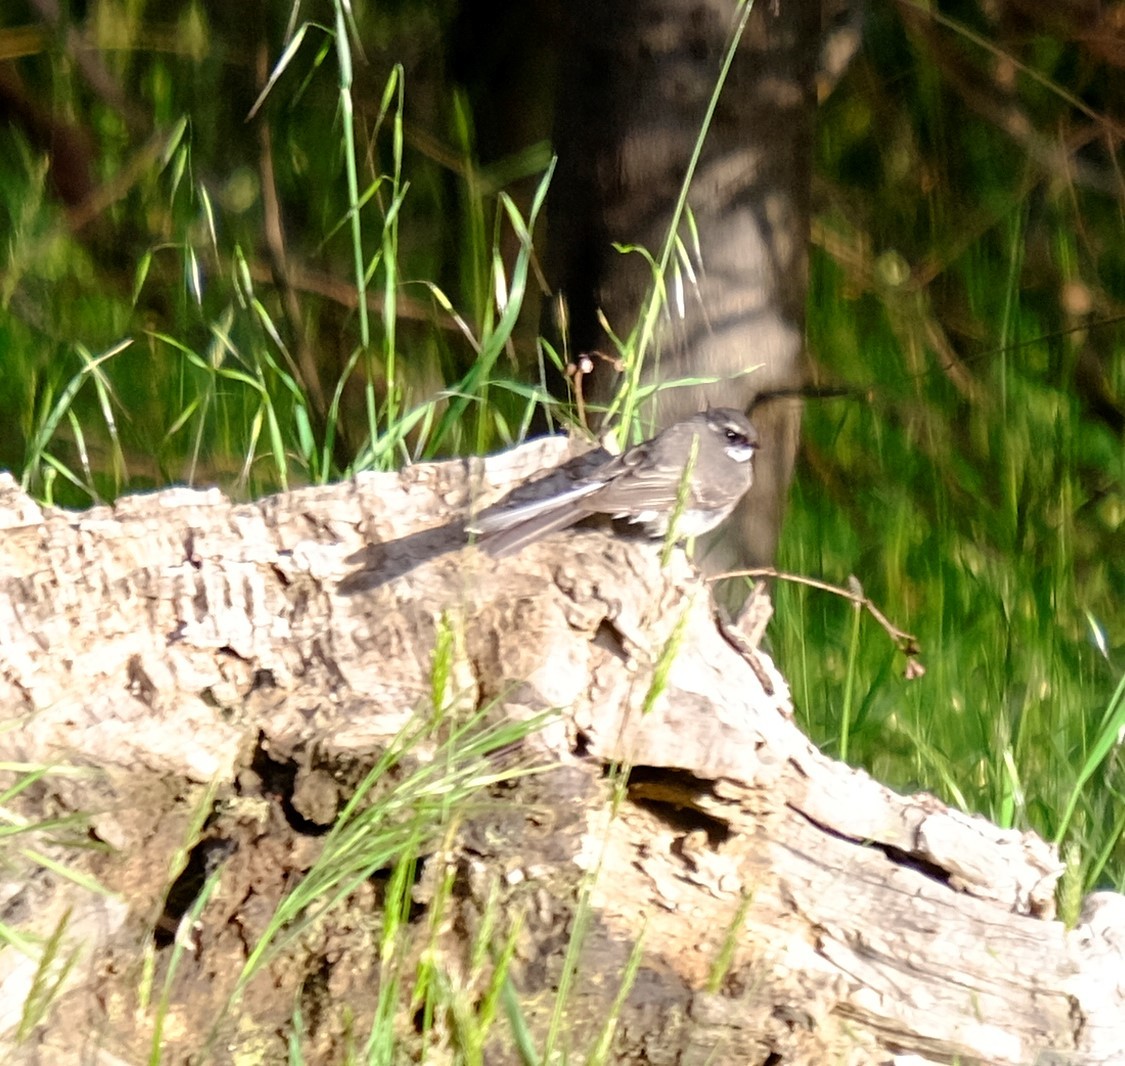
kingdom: Animalia
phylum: Chordata
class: Aves
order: Passeriformes
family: Rhipiduridae
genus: Rhipidura
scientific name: Rhipidura albiscapa
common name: Grey fantail
